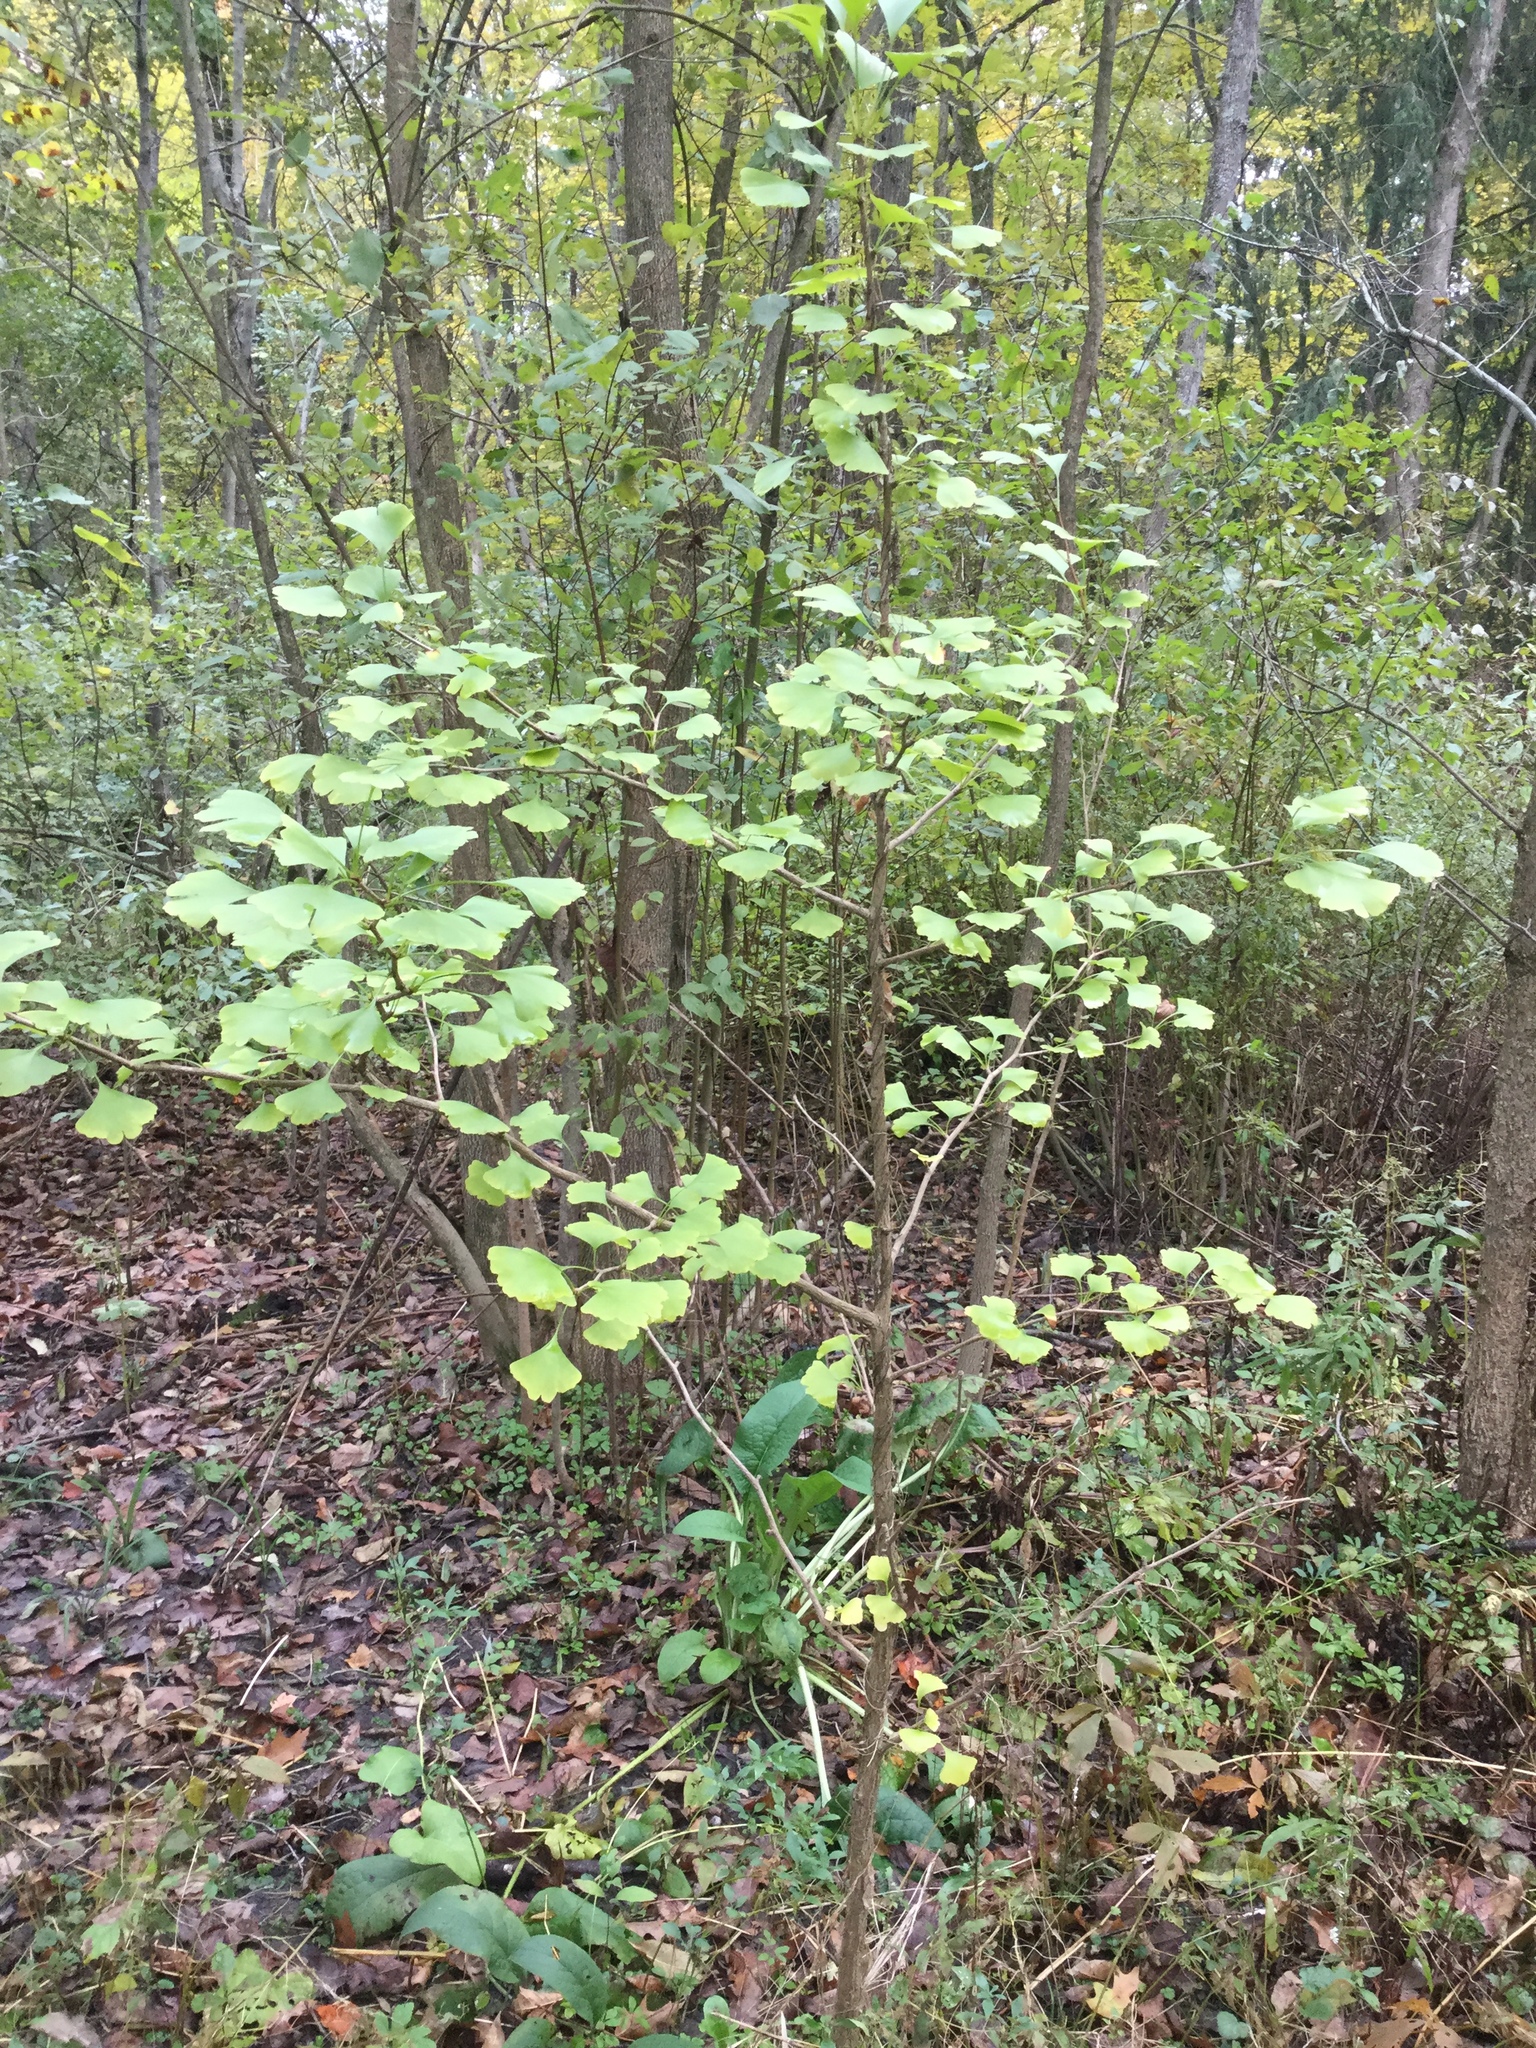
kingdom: Plantae
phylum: Tracheophyta
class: Ginkgoopsida
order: Ginkgoales
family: Ginkgoaceae
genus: Ginkgo
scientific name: Ginkgo biloba
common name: Ginkgo
